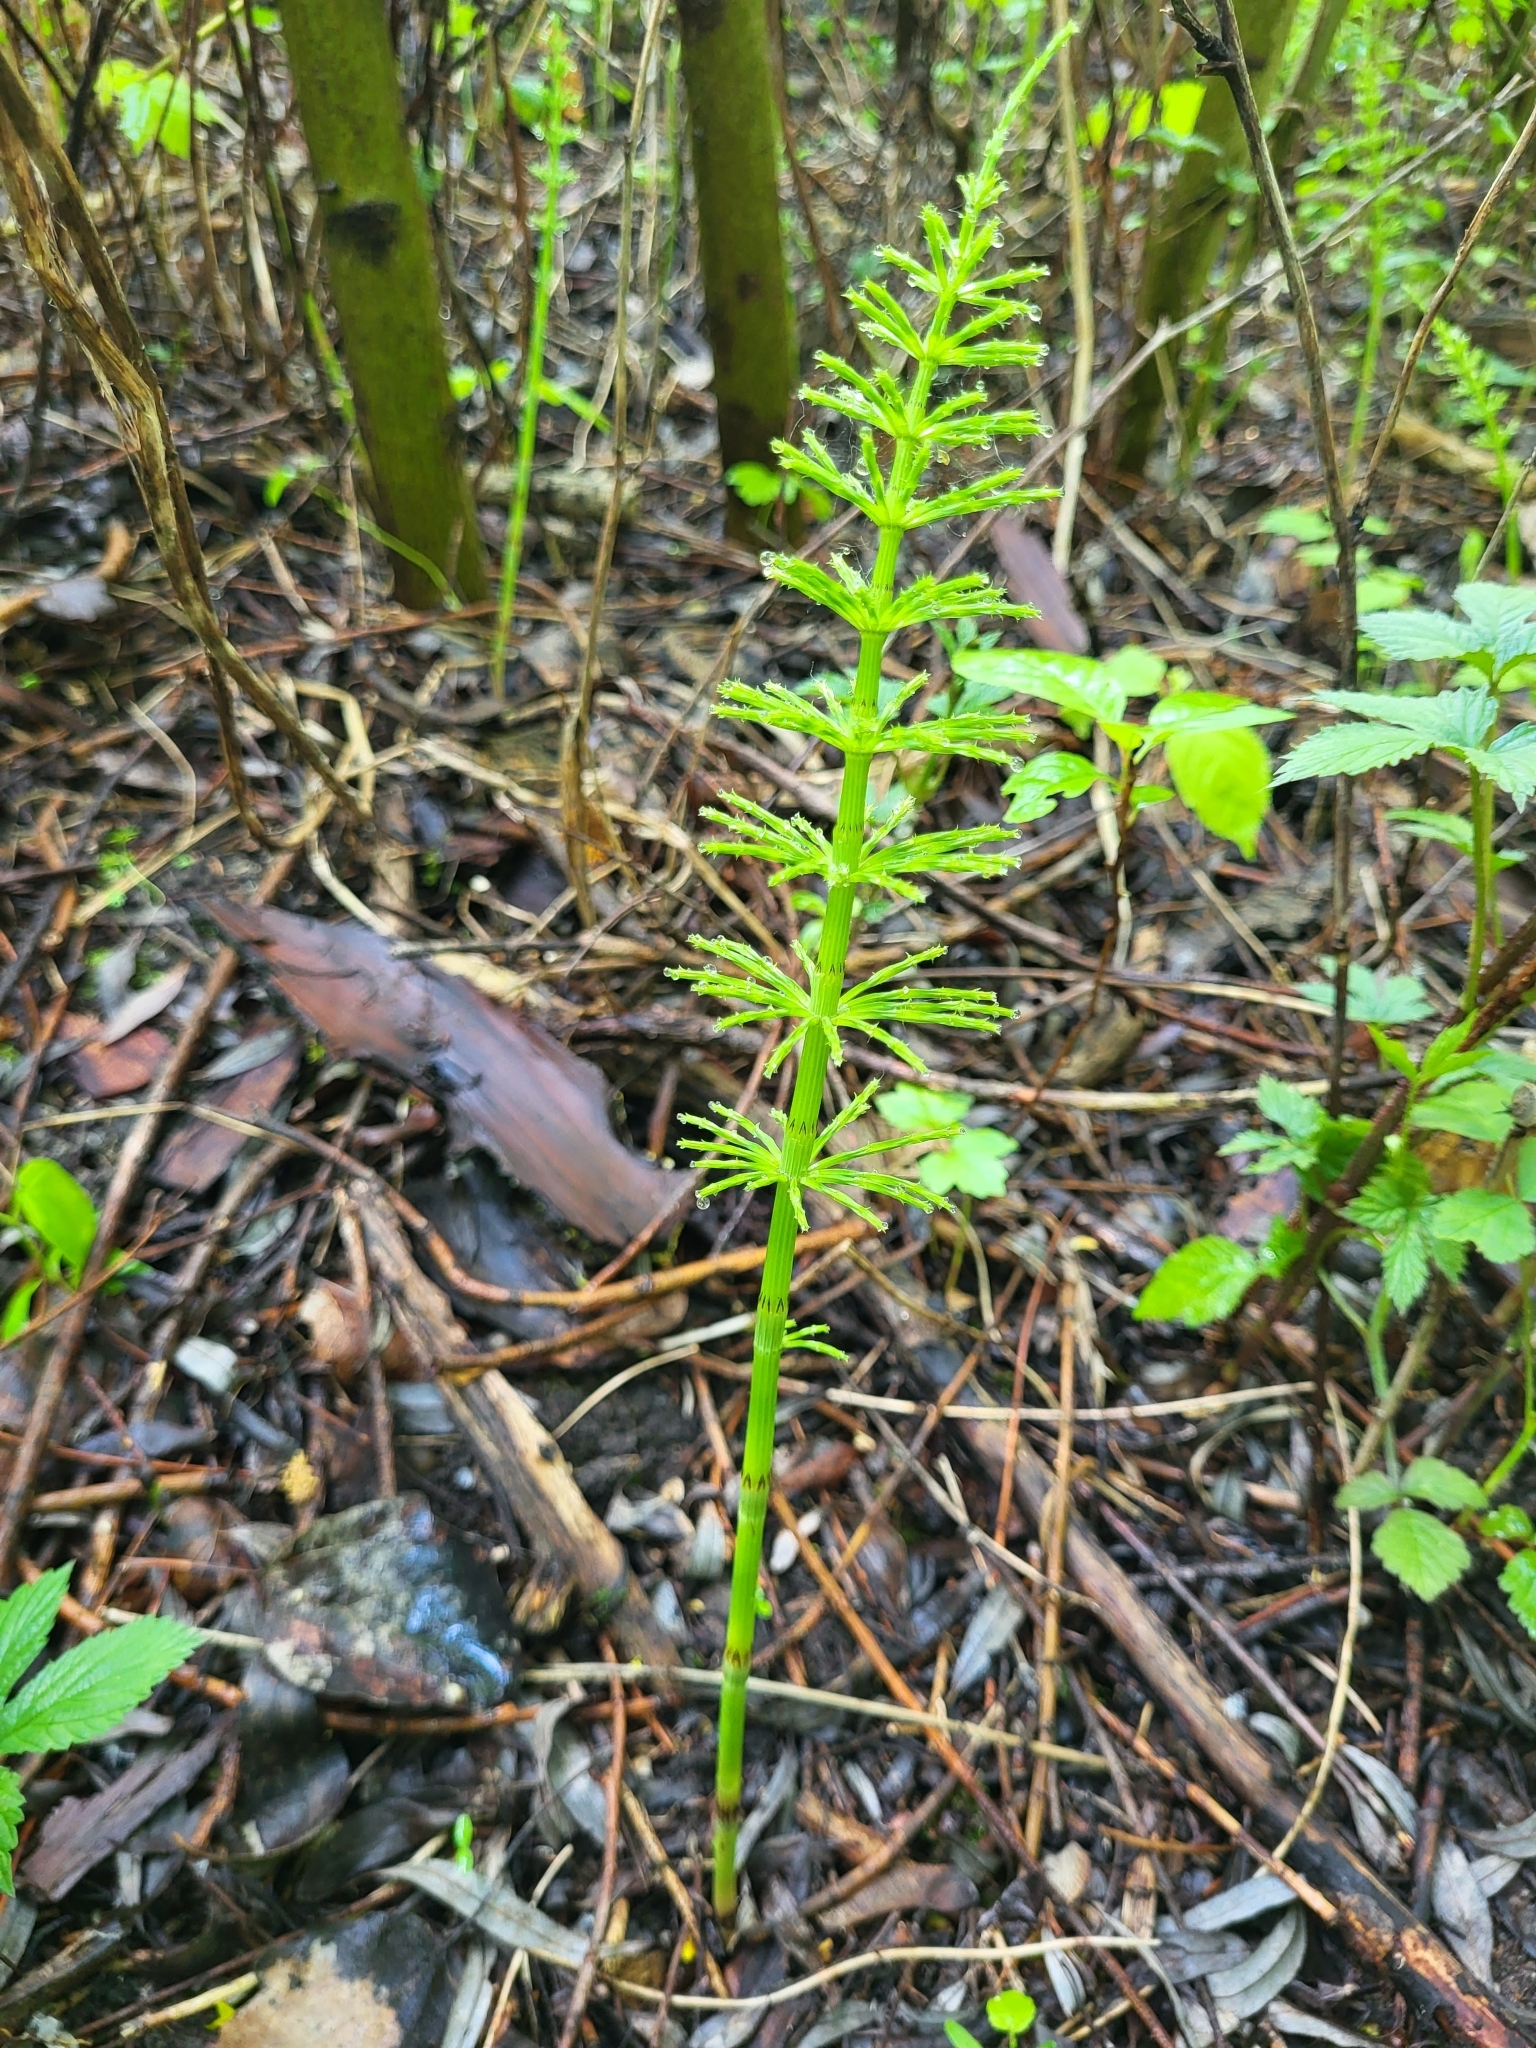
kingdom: Plantae
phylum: Tracheophyta
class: Polypodiopsida
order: Equisetales
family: Equisetaceae
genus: Equisetum
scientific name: Equisetum arvense
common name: Field horsetail
